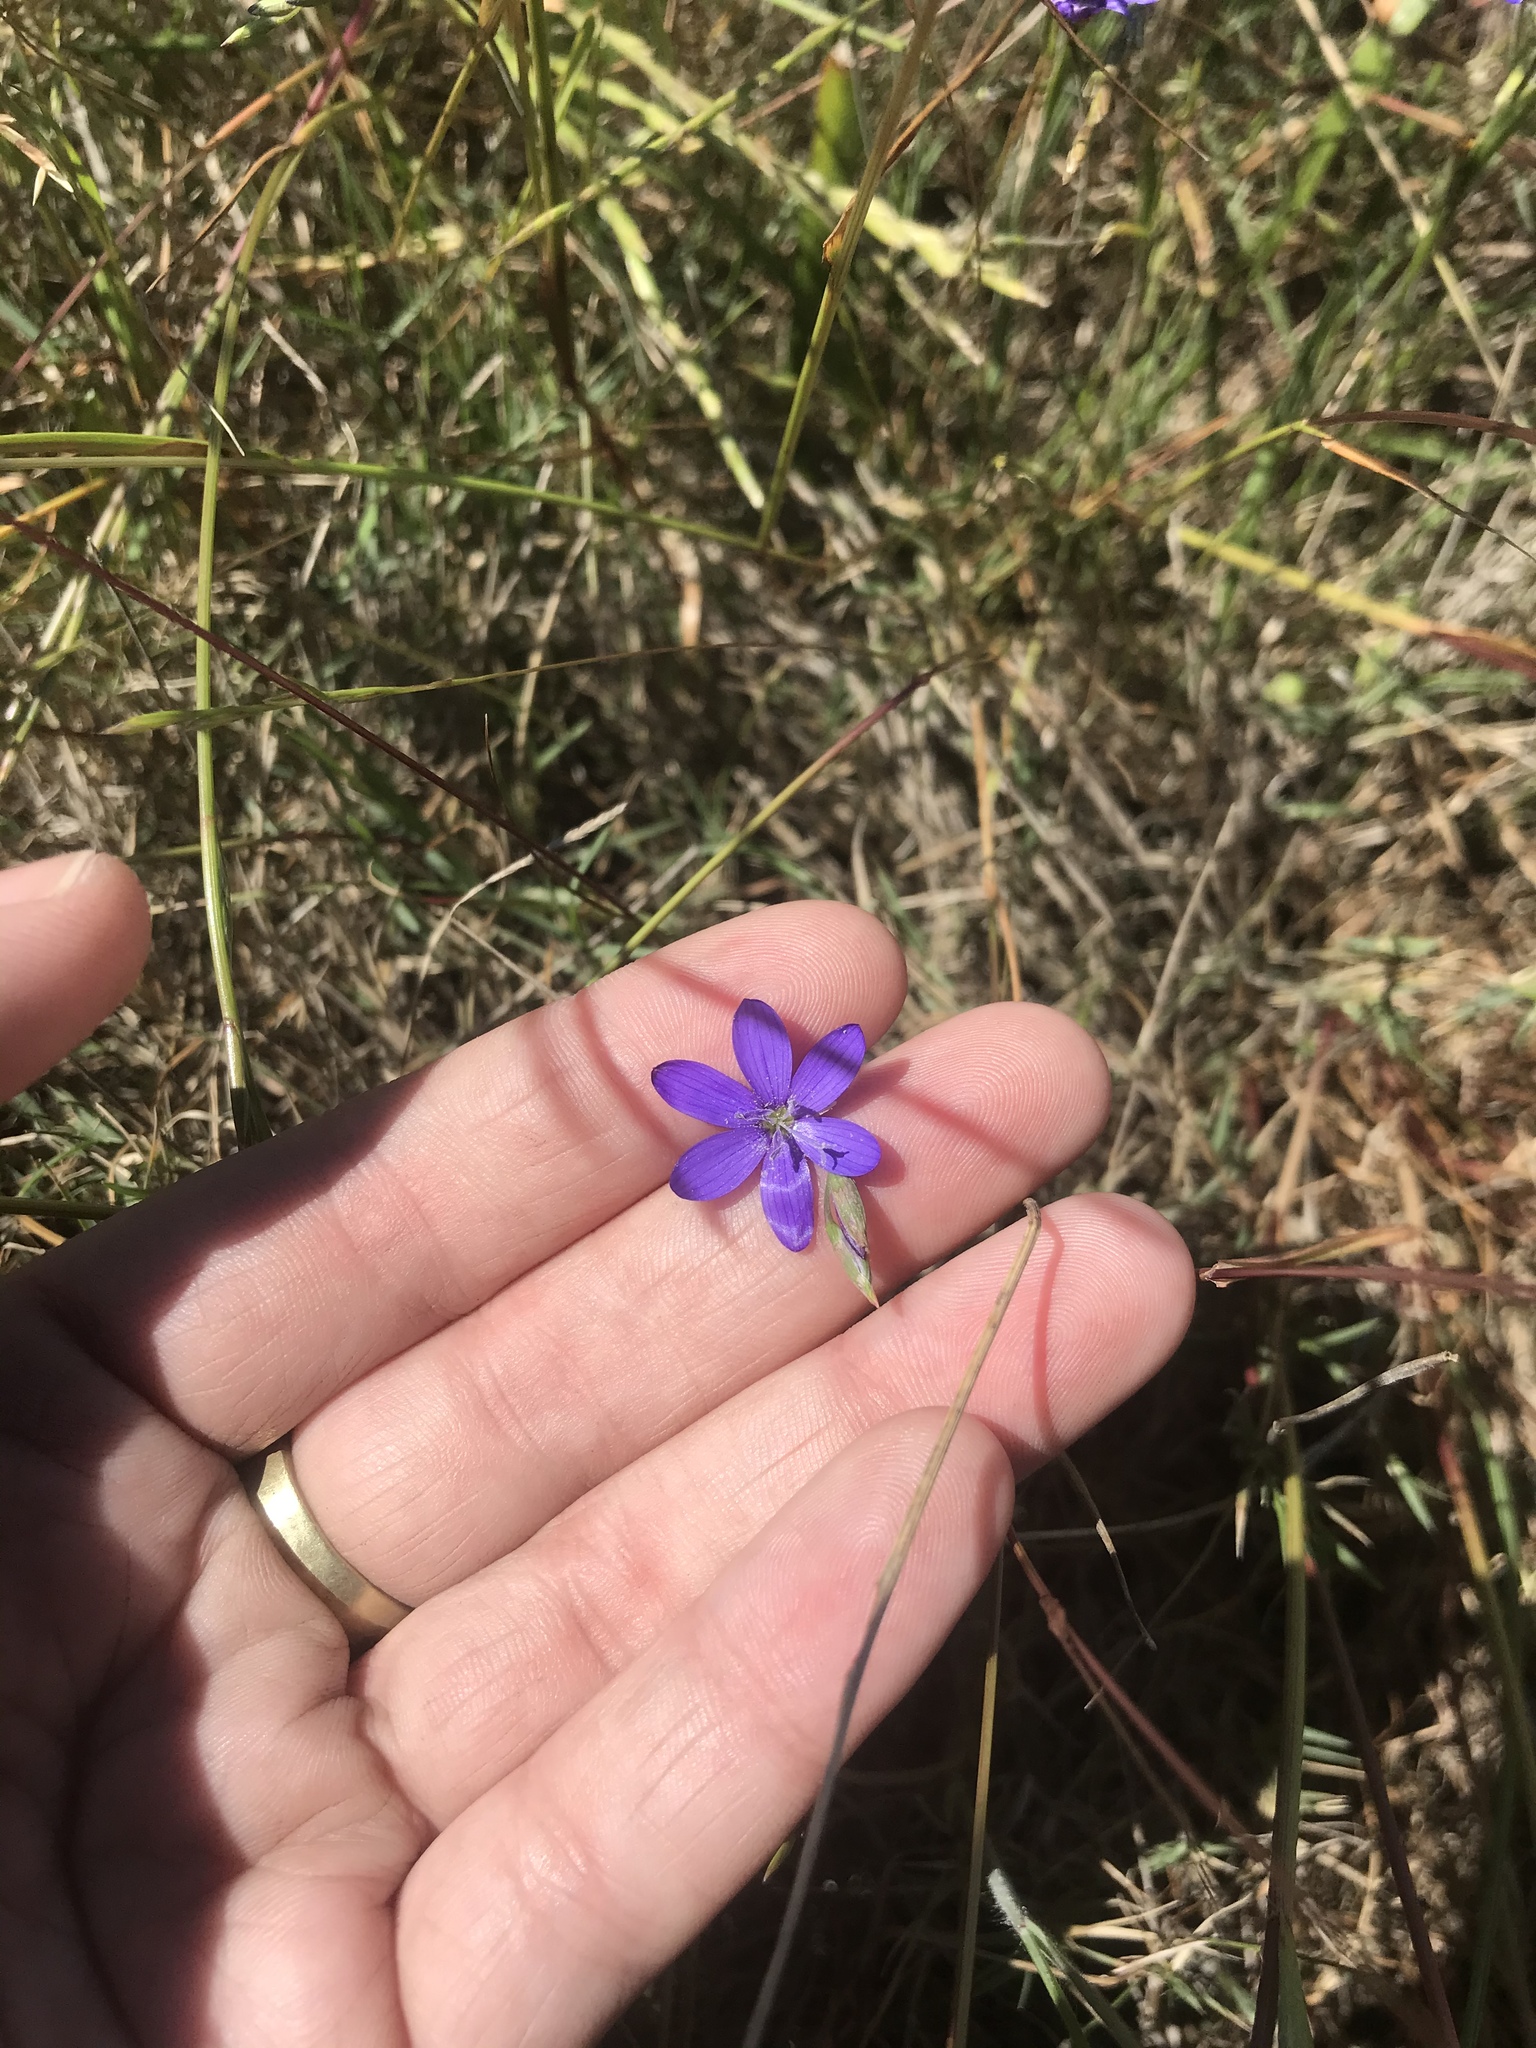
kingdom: Plantae
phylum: Tracheophyta
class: Liliopsida
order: Asparagales
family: Iridaceae
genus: Geissorhiza
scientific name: Geissorhiza aspera
